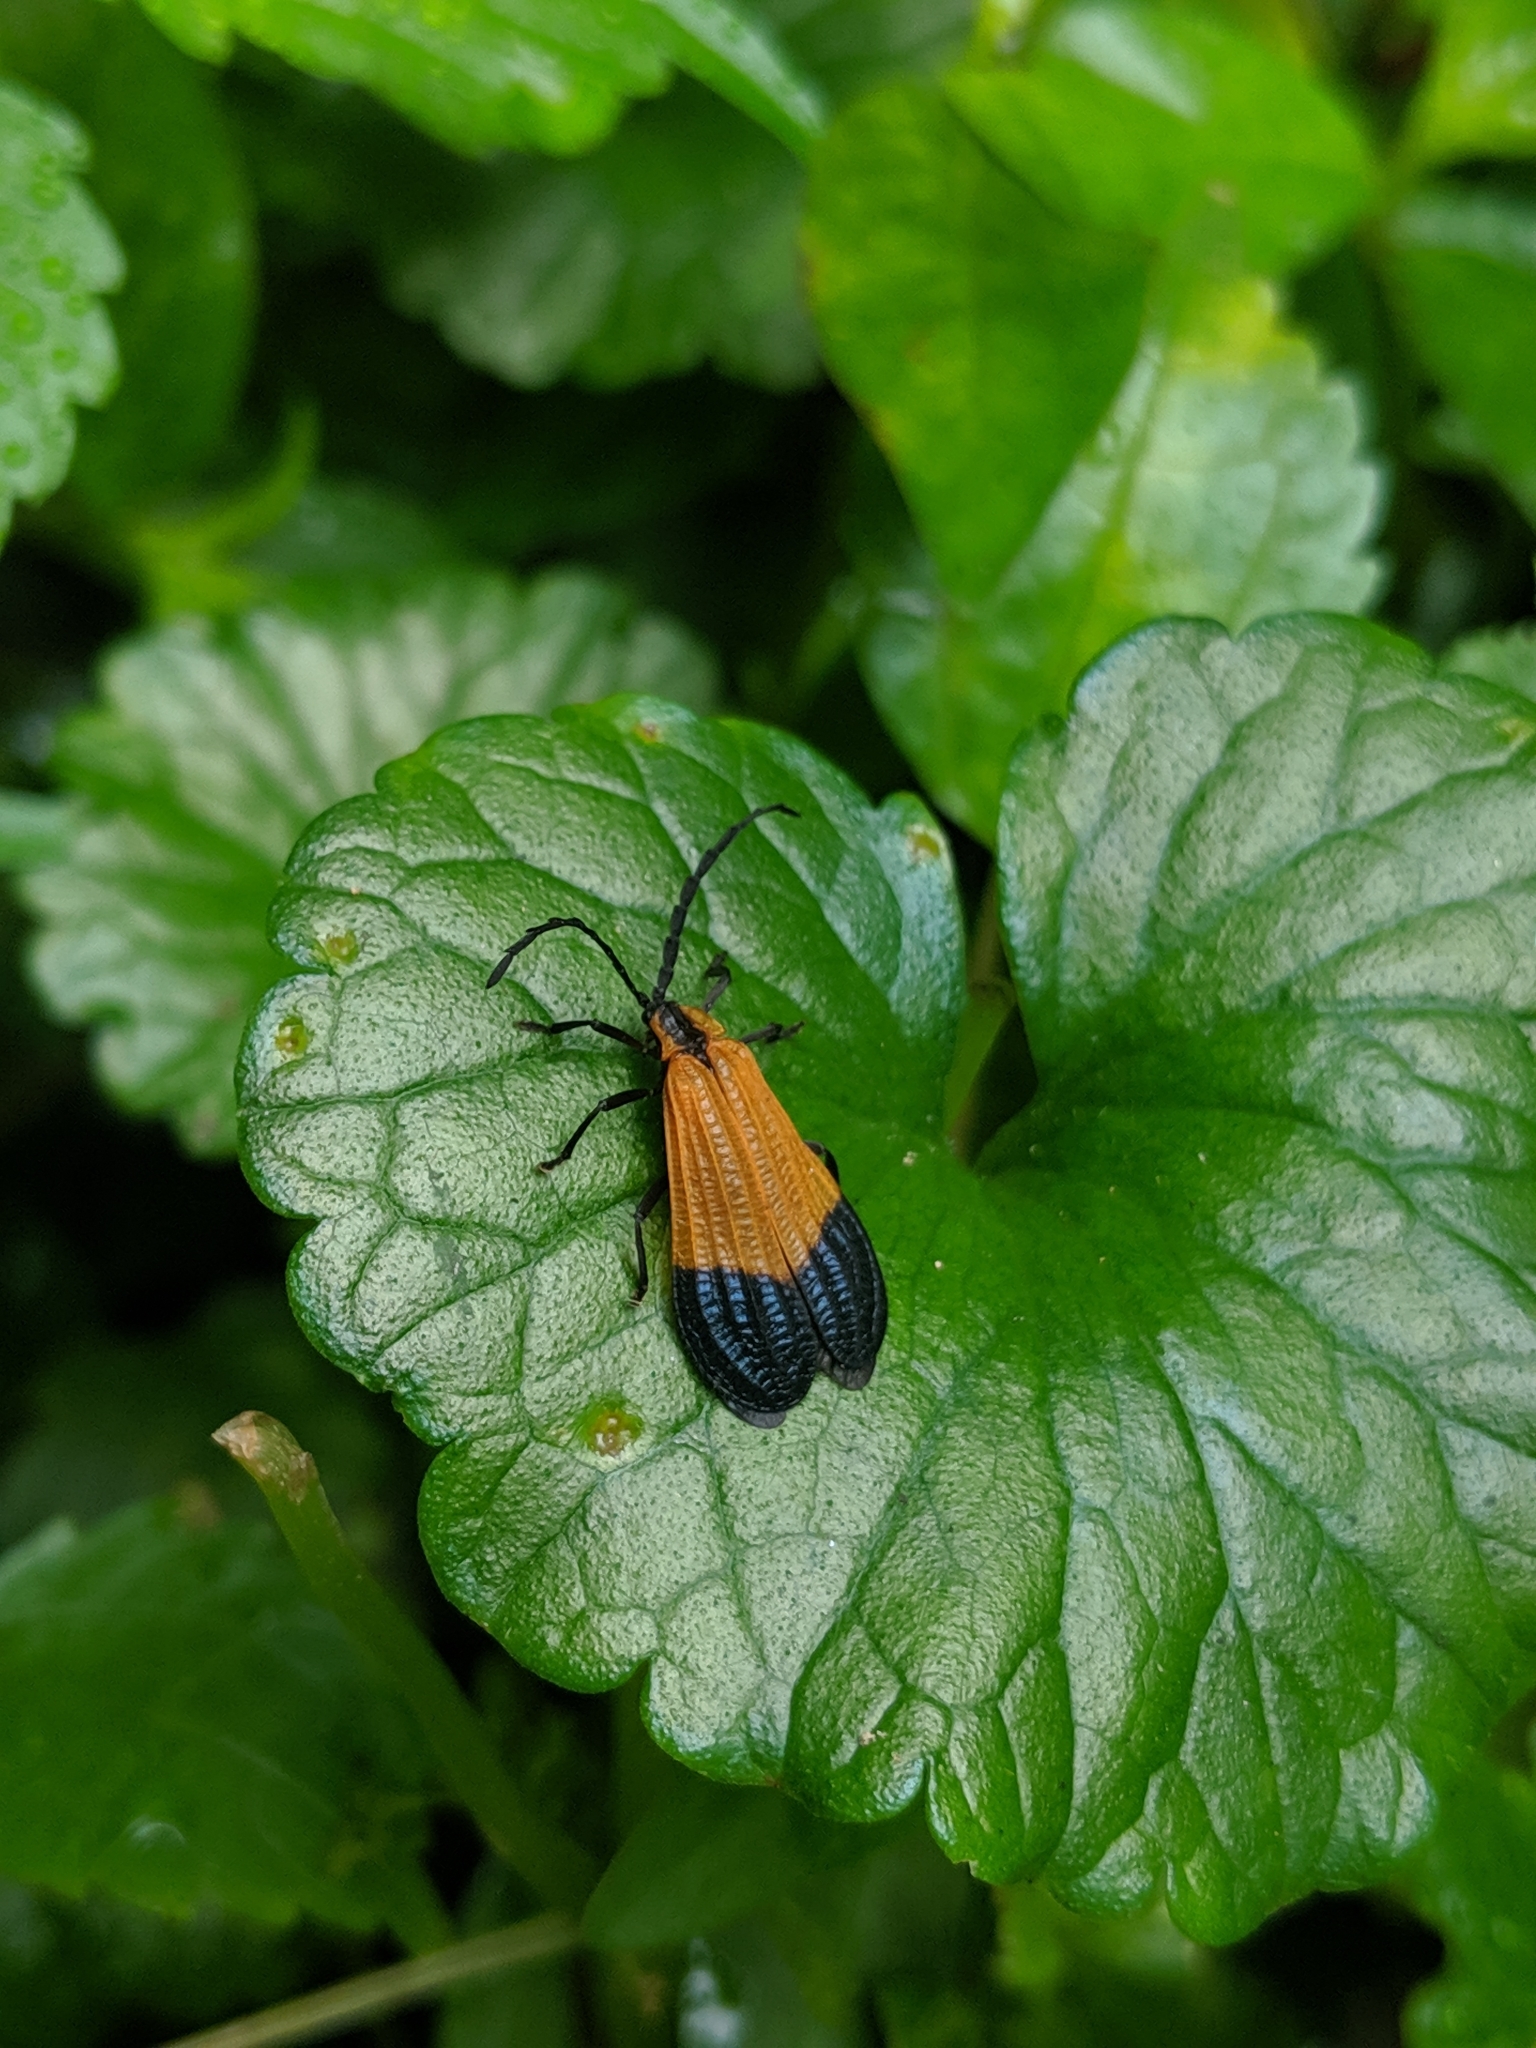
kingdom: Animalia
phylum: Arthropoda
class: Insecta
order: Coleoptera
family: Lycidae
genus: Calopteron
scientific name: Calopteron terminale
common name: End band net-winged beetle
